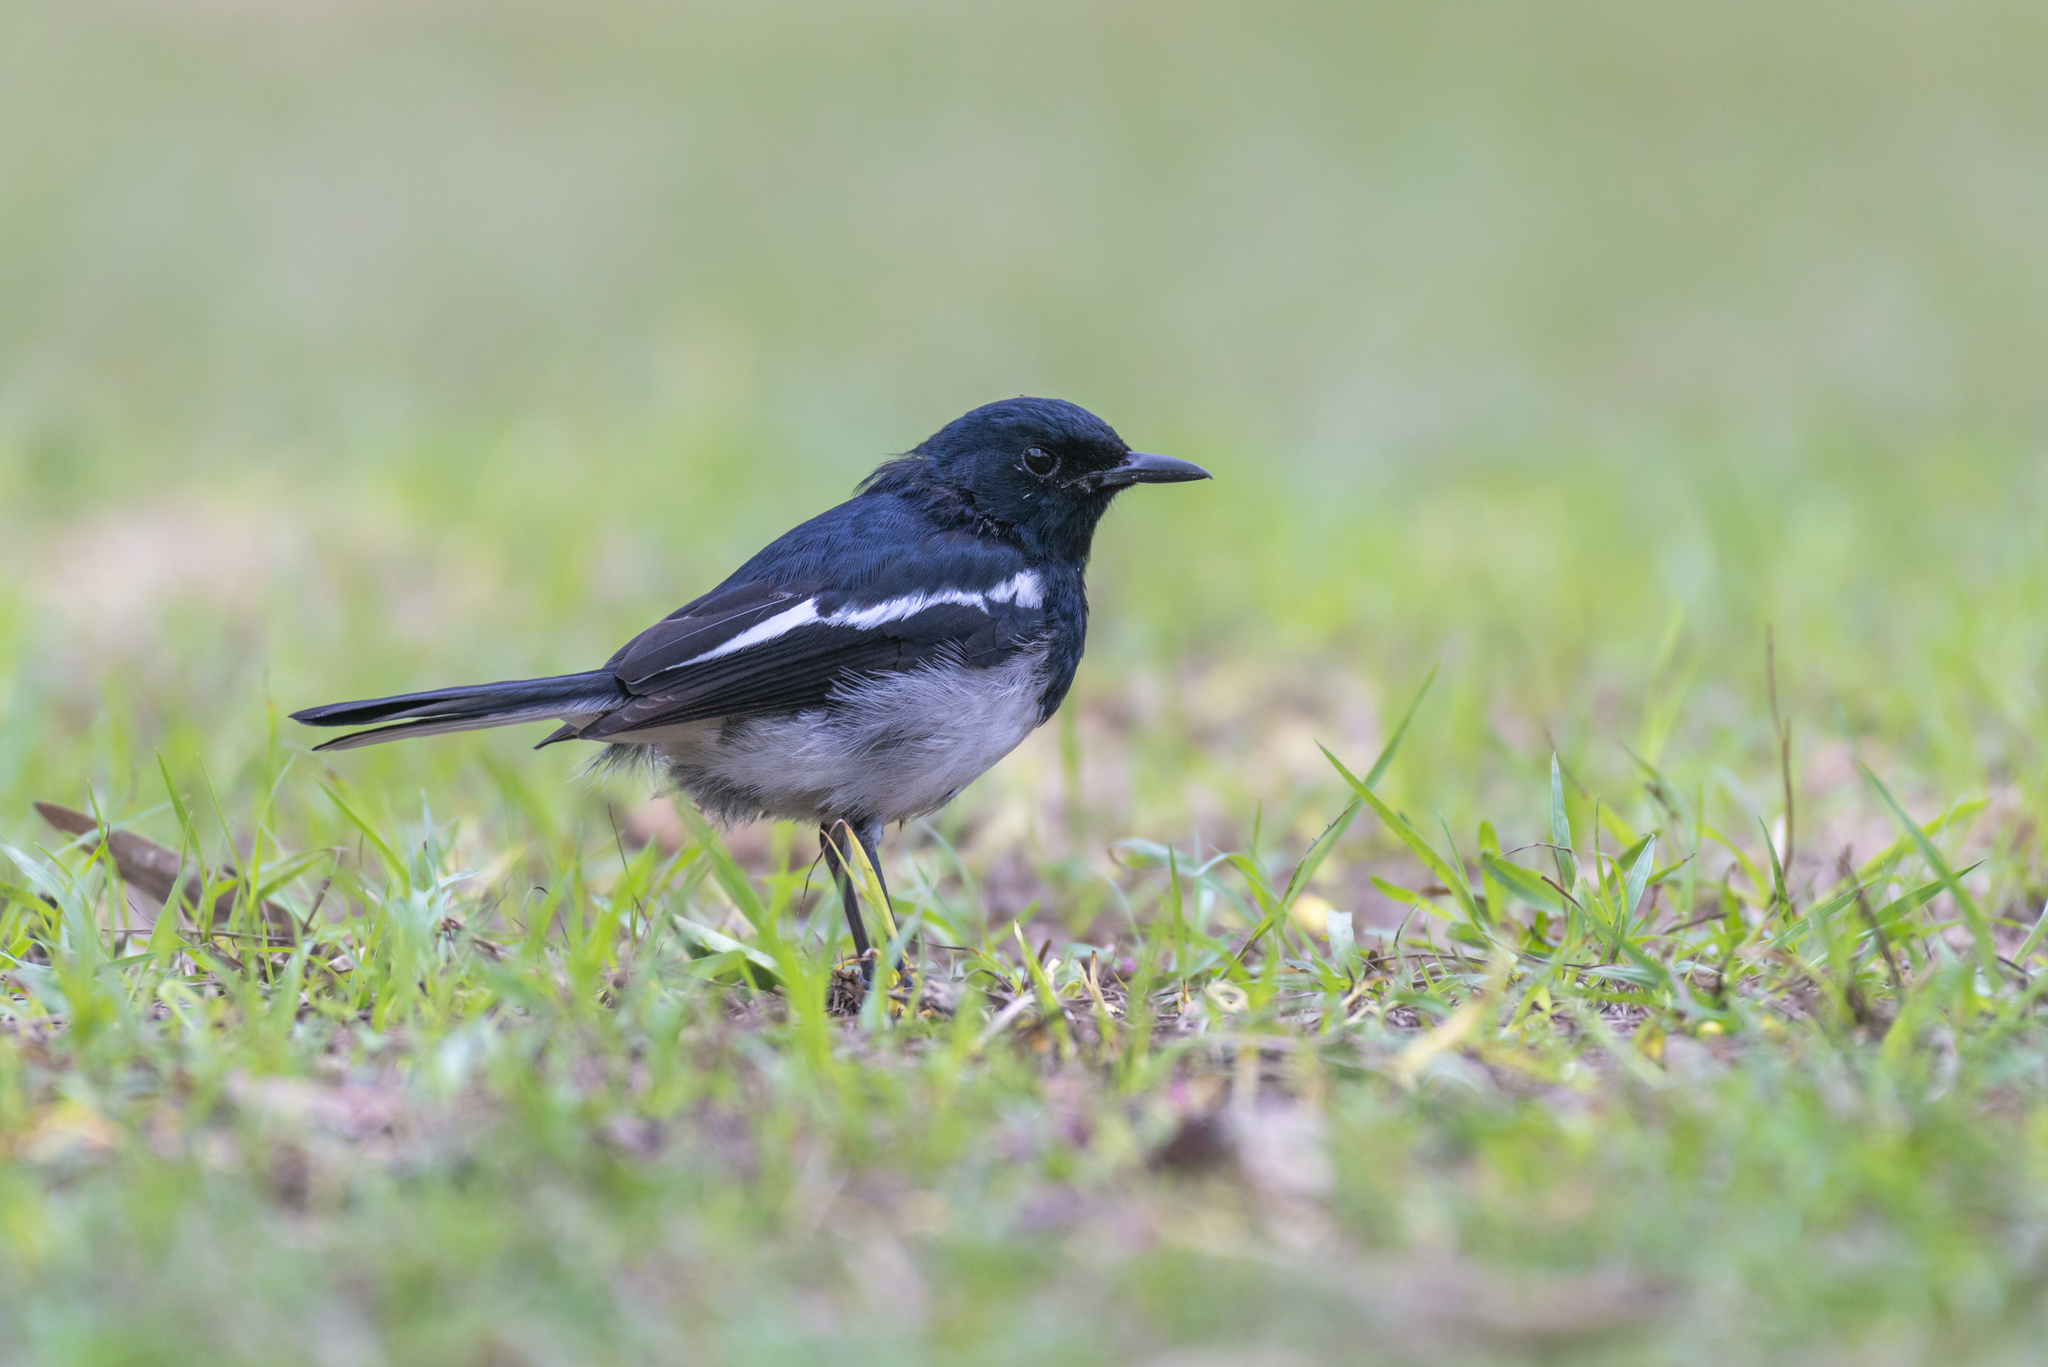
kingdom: Animalia
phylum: Chordata
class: Aves
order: Passeriformes
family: Muscicapidae
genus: Copsychus
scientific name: Copsychus saularis
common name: Oriental magpie-robin
